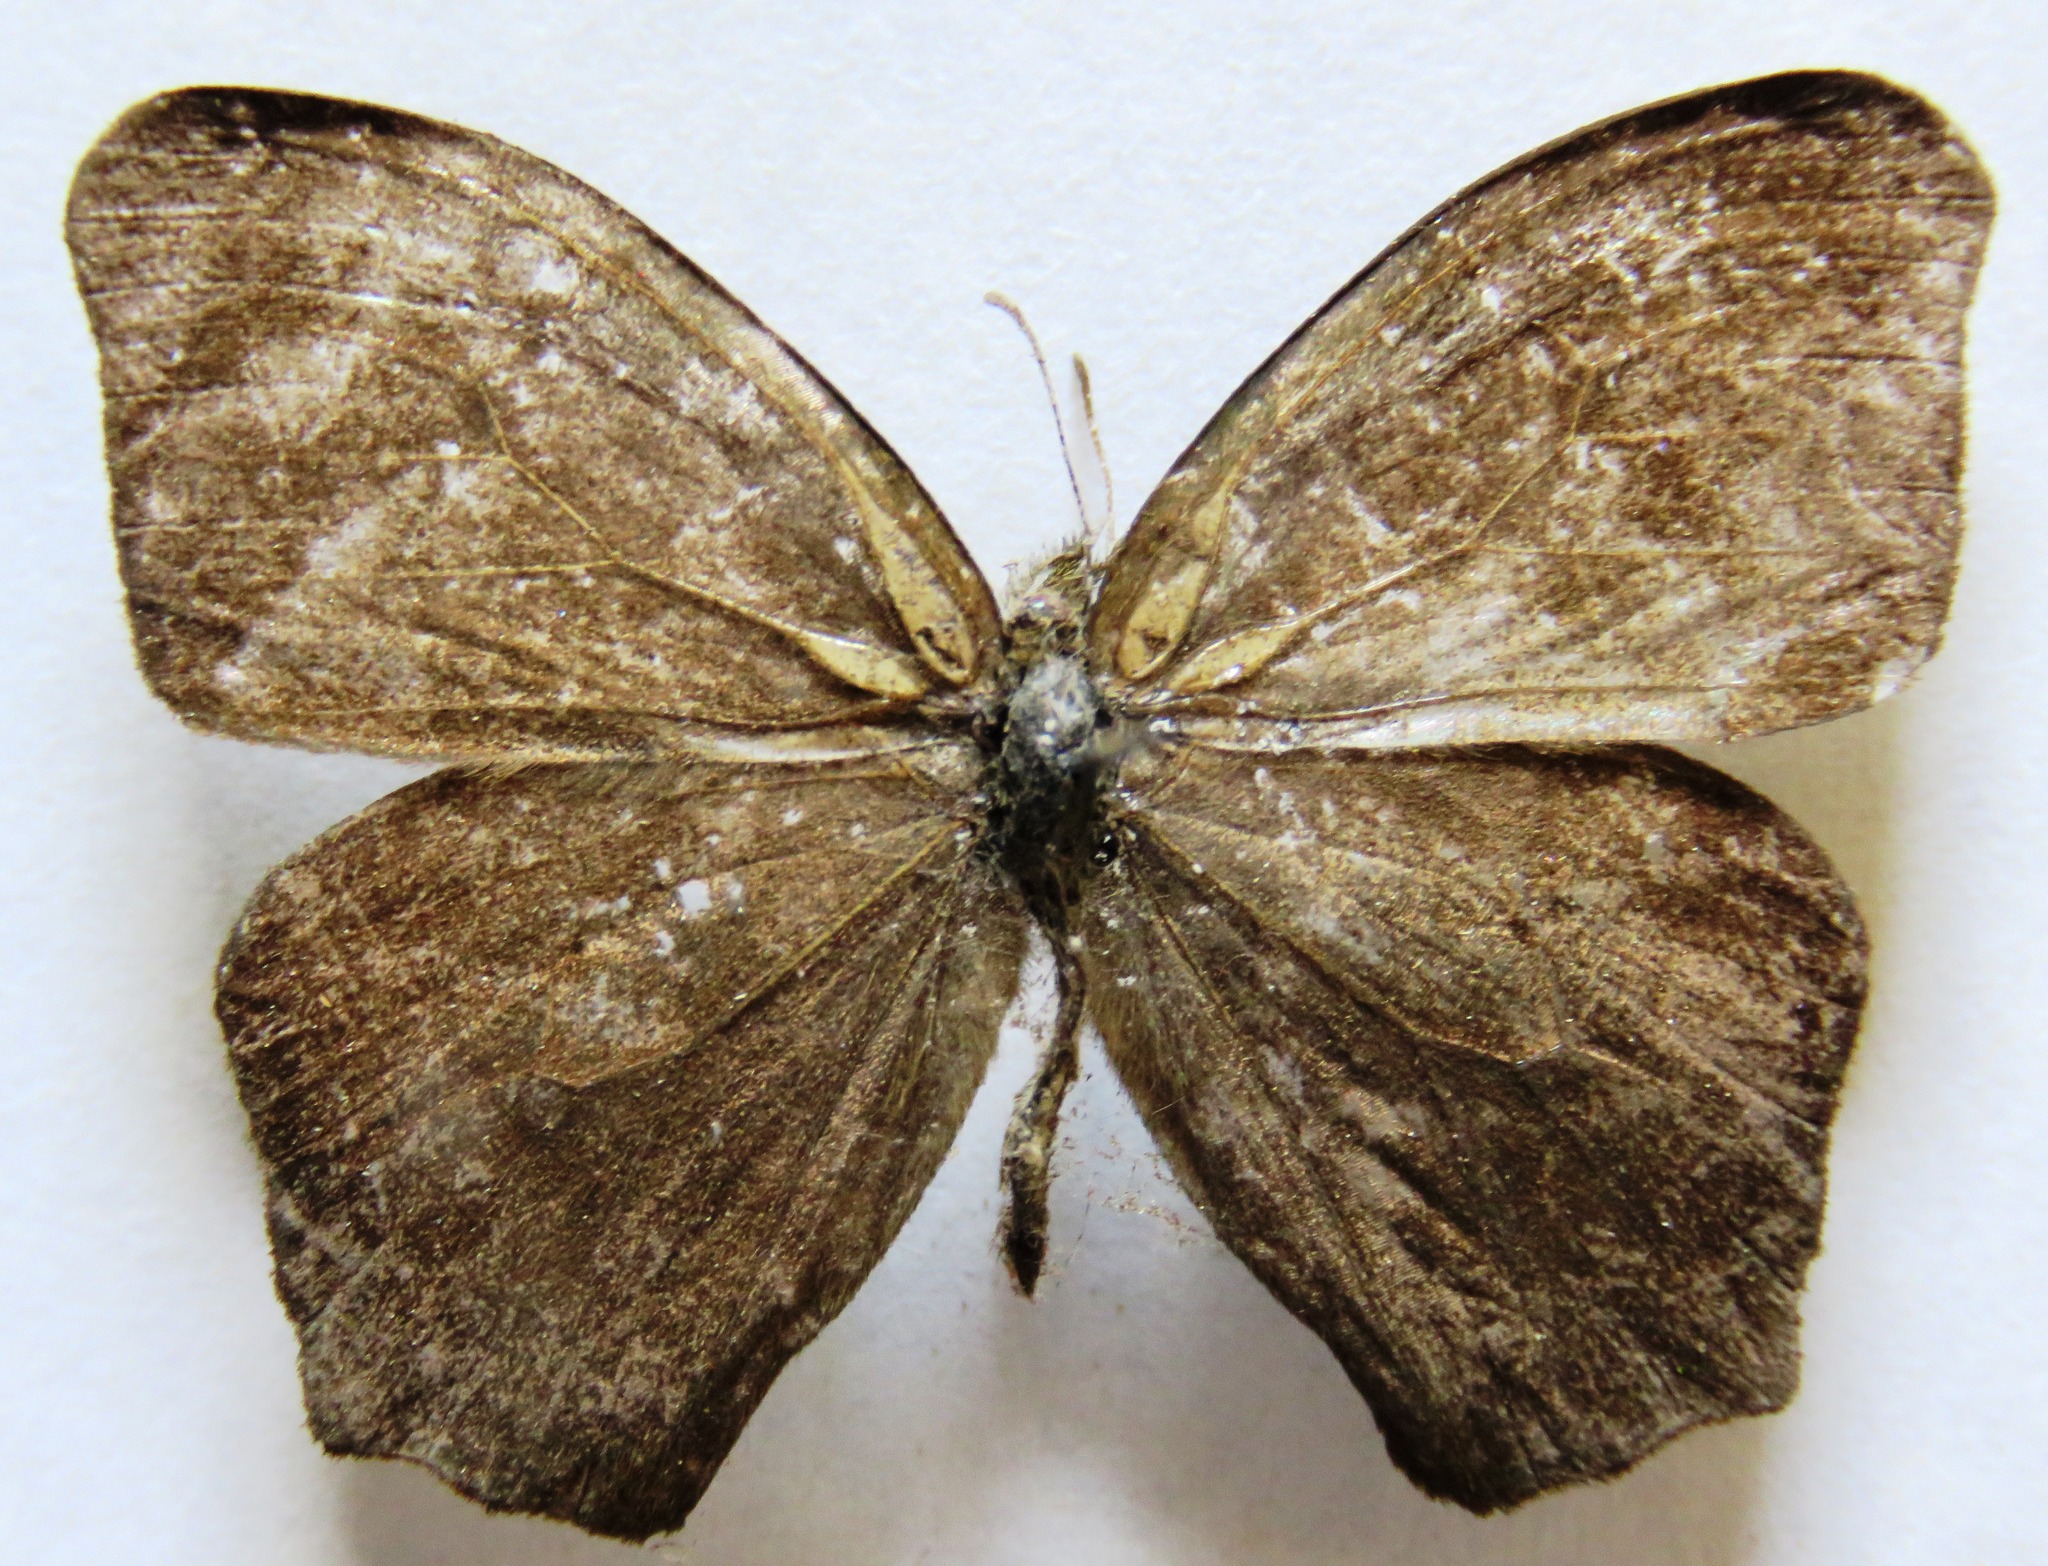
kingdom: Animalia
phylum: Arthropoda
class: Insecta
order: Lepidoptera
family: Nymphalidae
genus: Euptychia
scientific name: Euptychia Cyllopsis hedemanni
